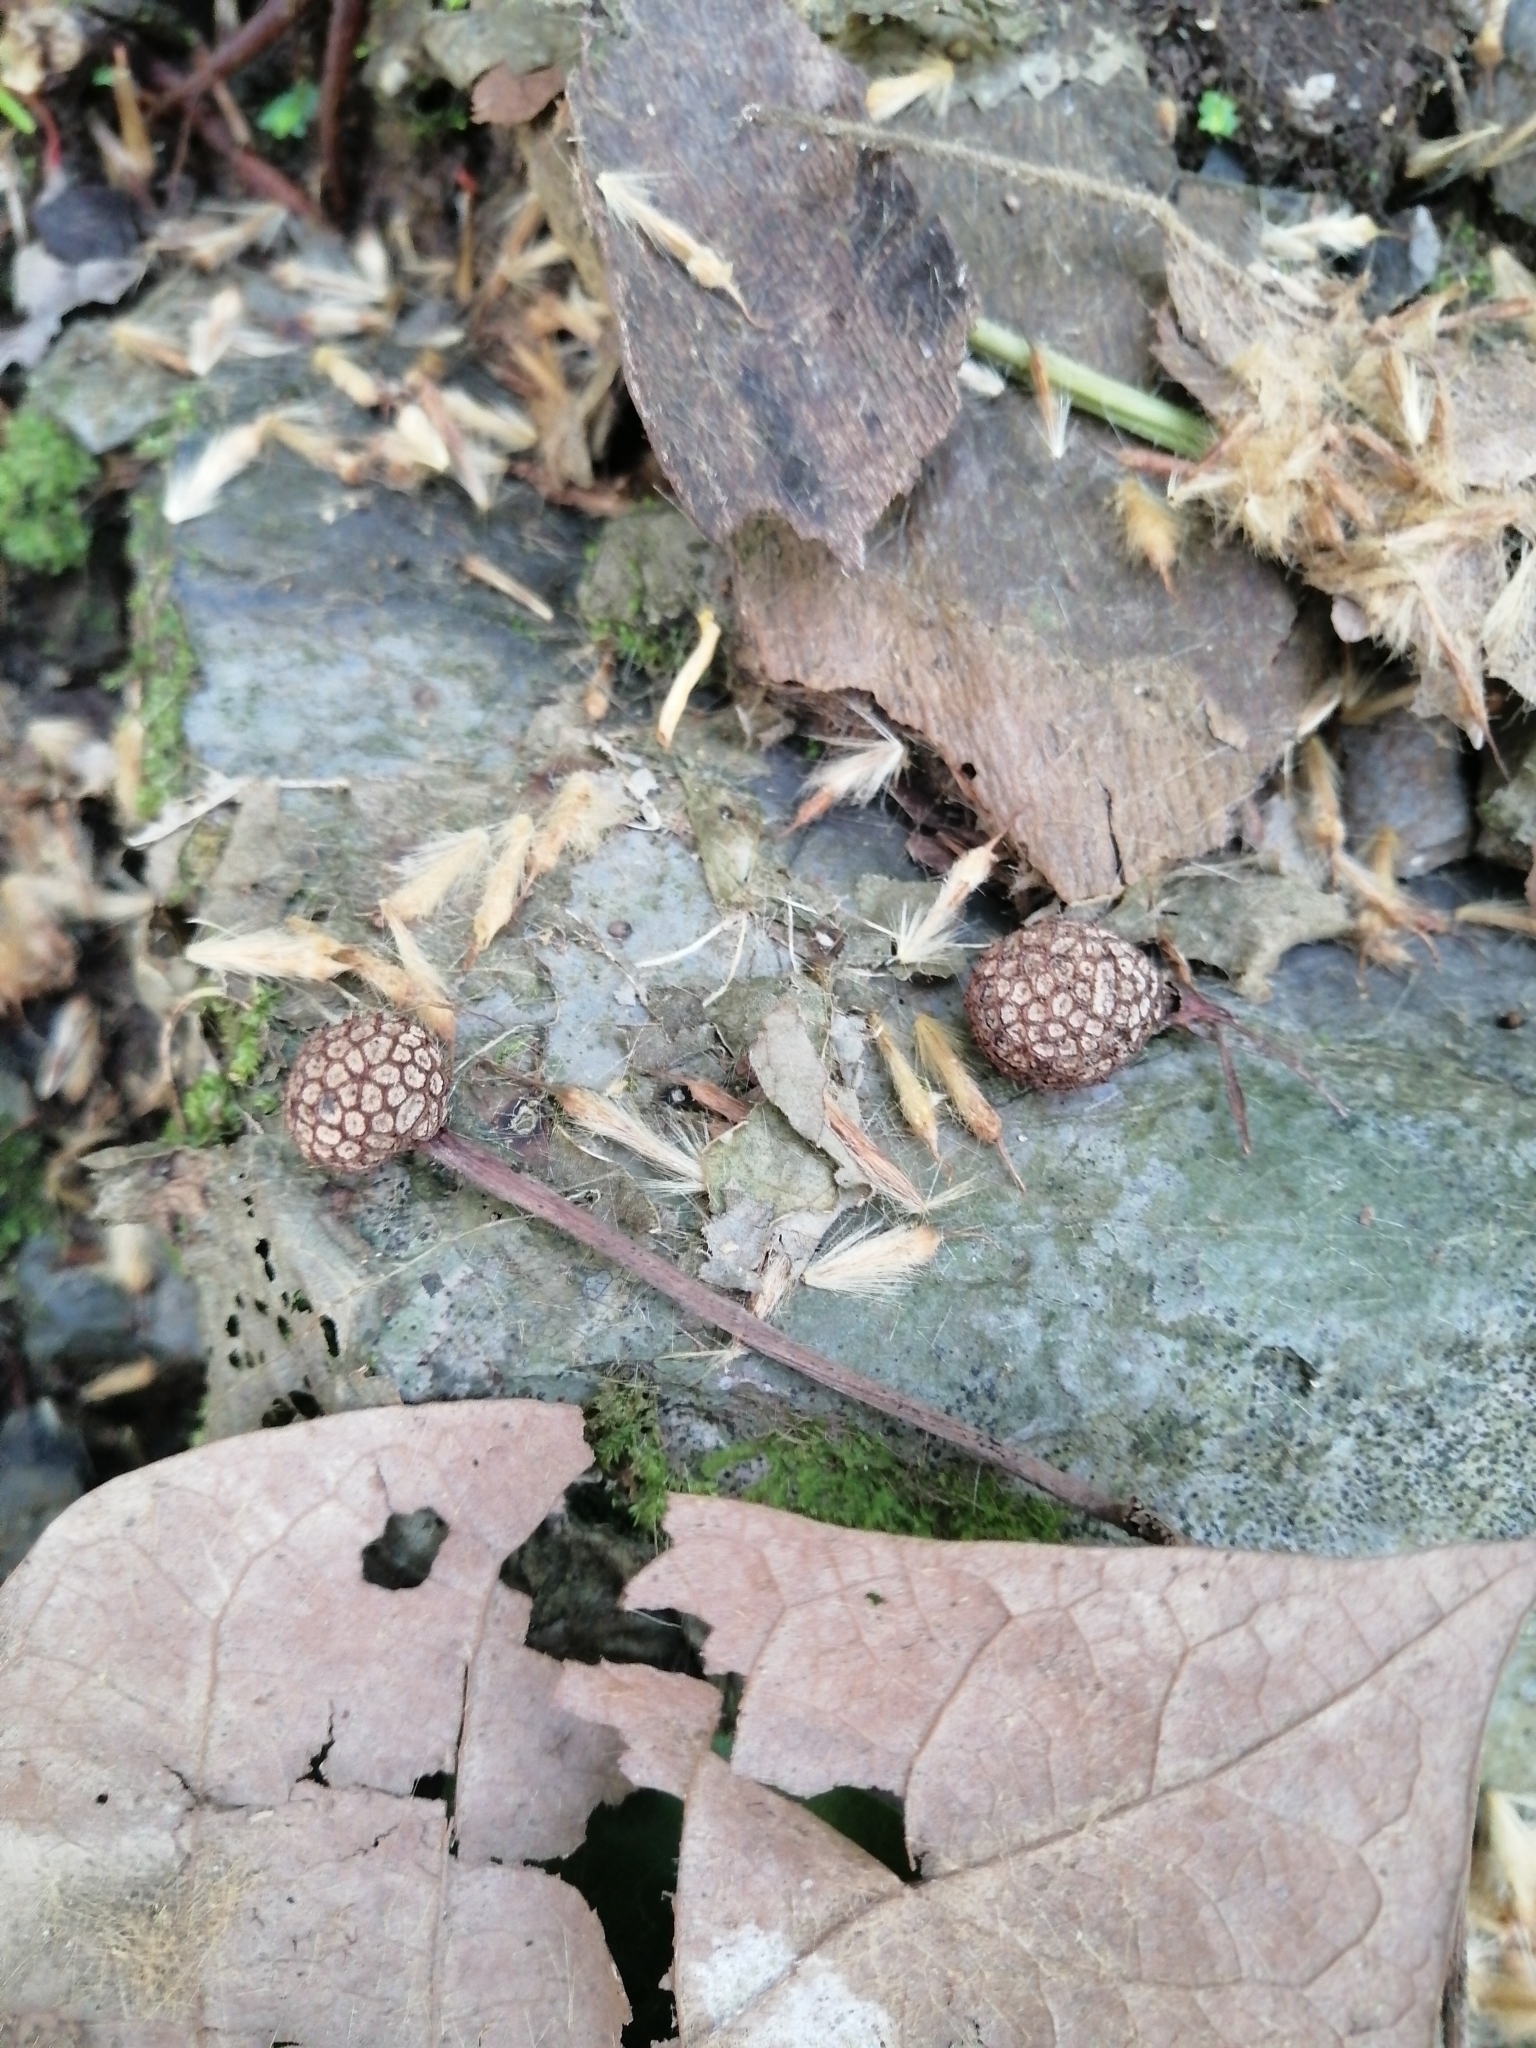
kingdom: Plantae
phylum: Tracheophyta
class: Magnoliopsida
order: Proteales
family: Platanaceae
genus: Platanus
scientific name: Platanus mexicana
